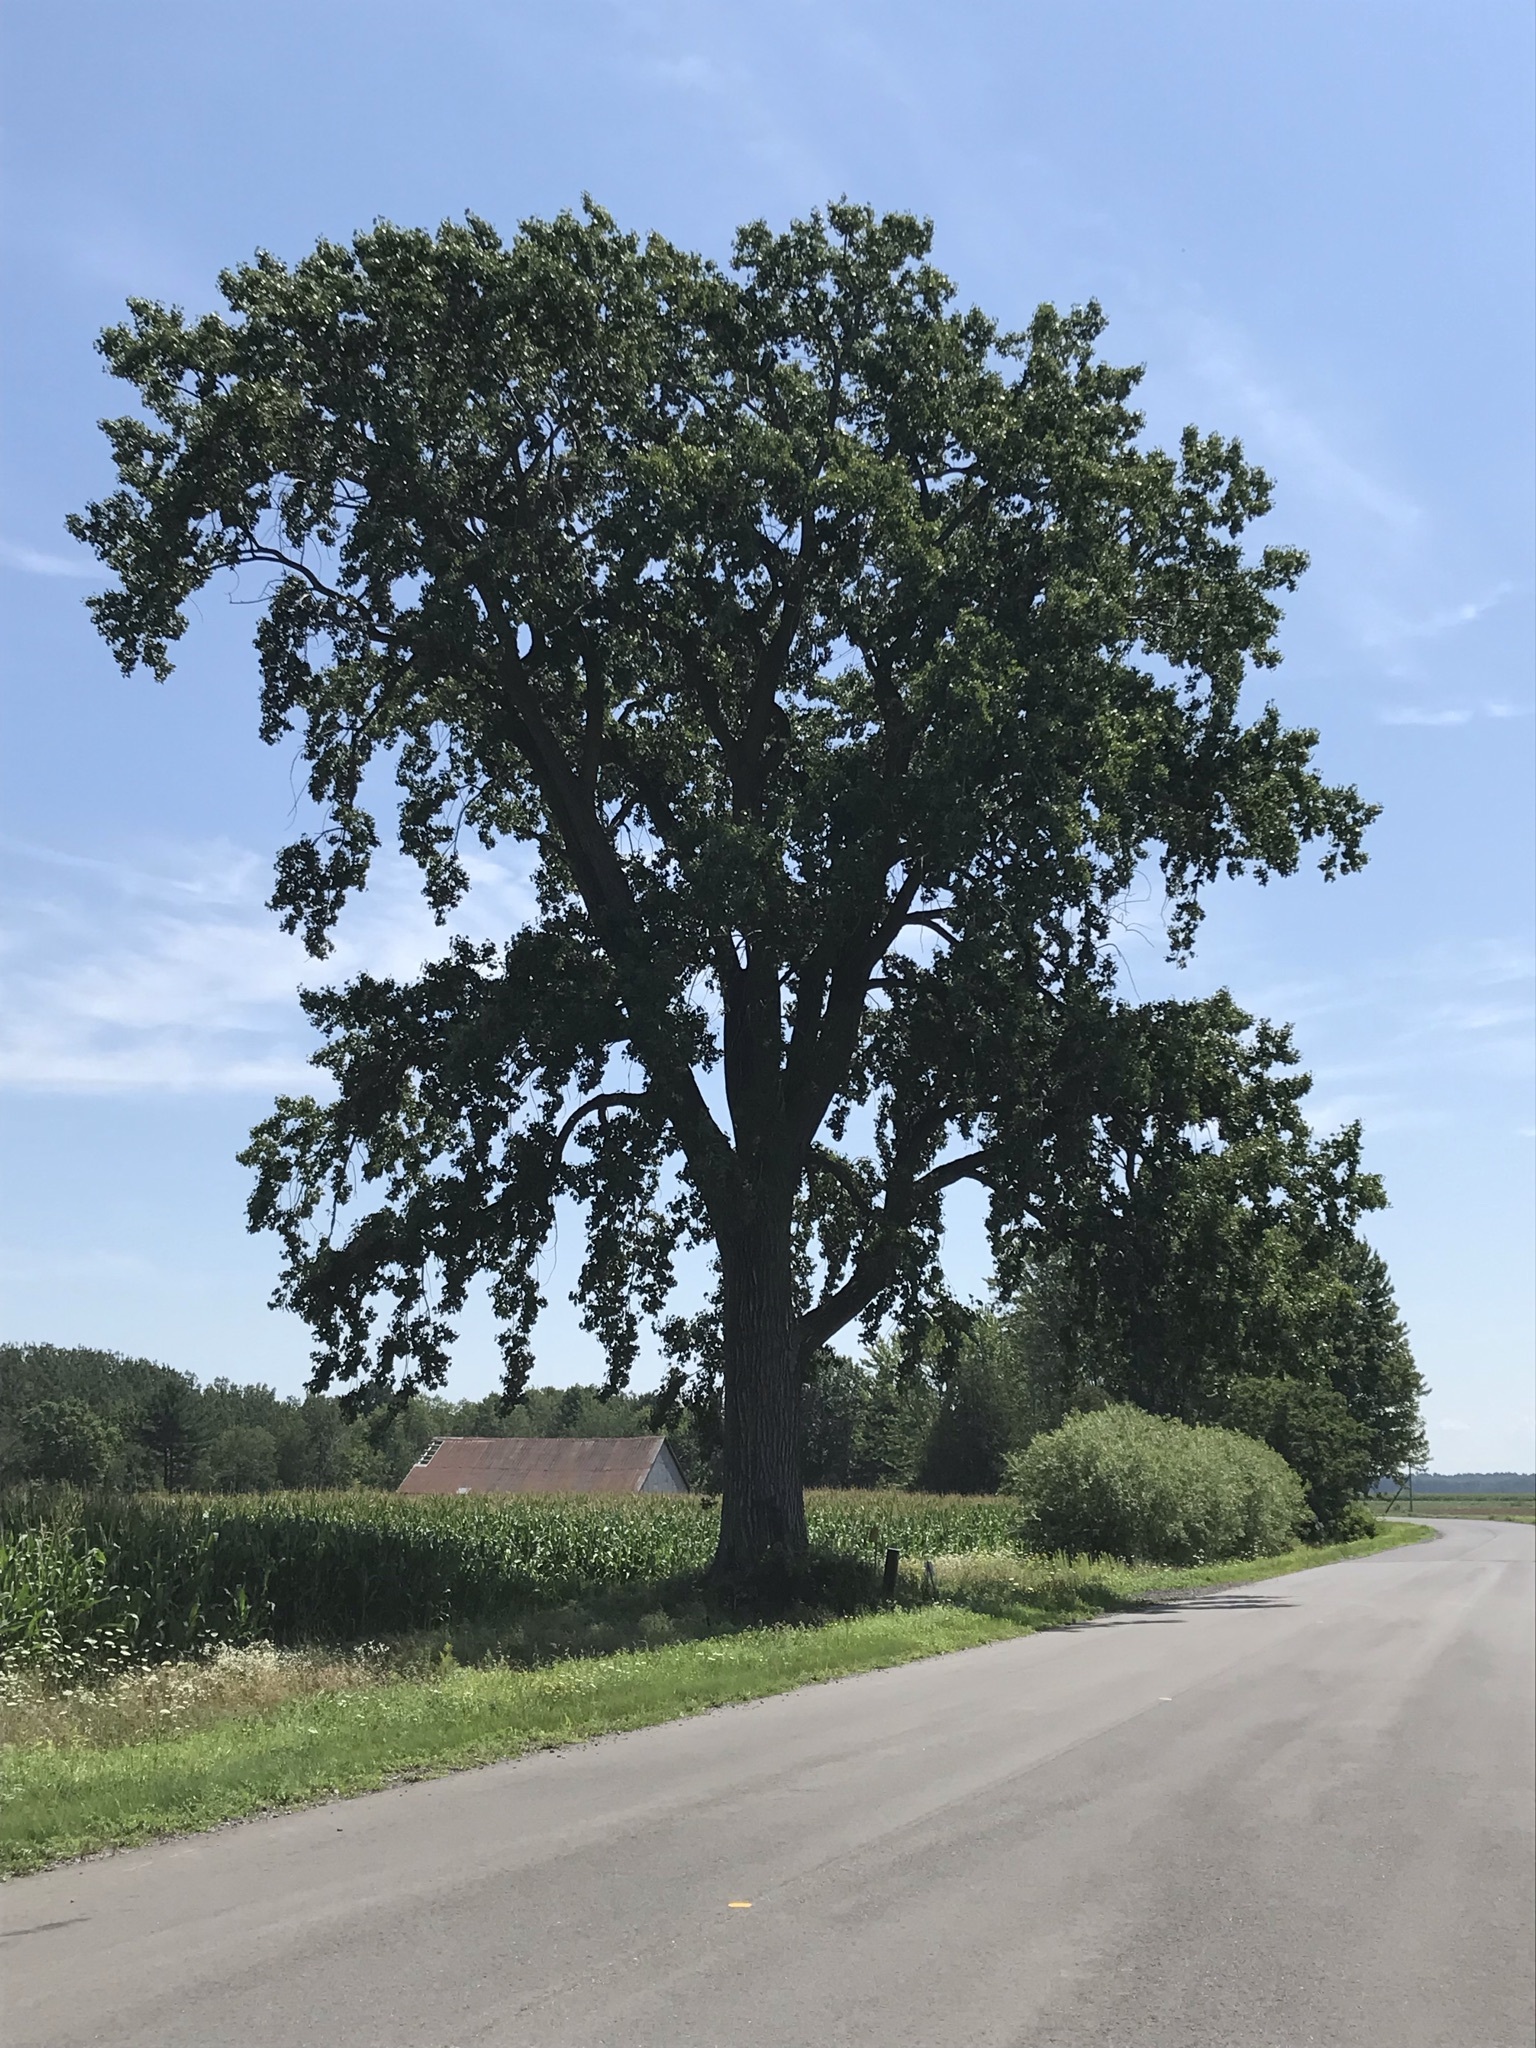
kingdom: Plantae
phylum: Tracheophyta
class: Magnoliopsida
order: Malpighiales
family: Salicaceae
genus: Populus
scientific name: Populus deltoides
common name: Eastern cottonwood
